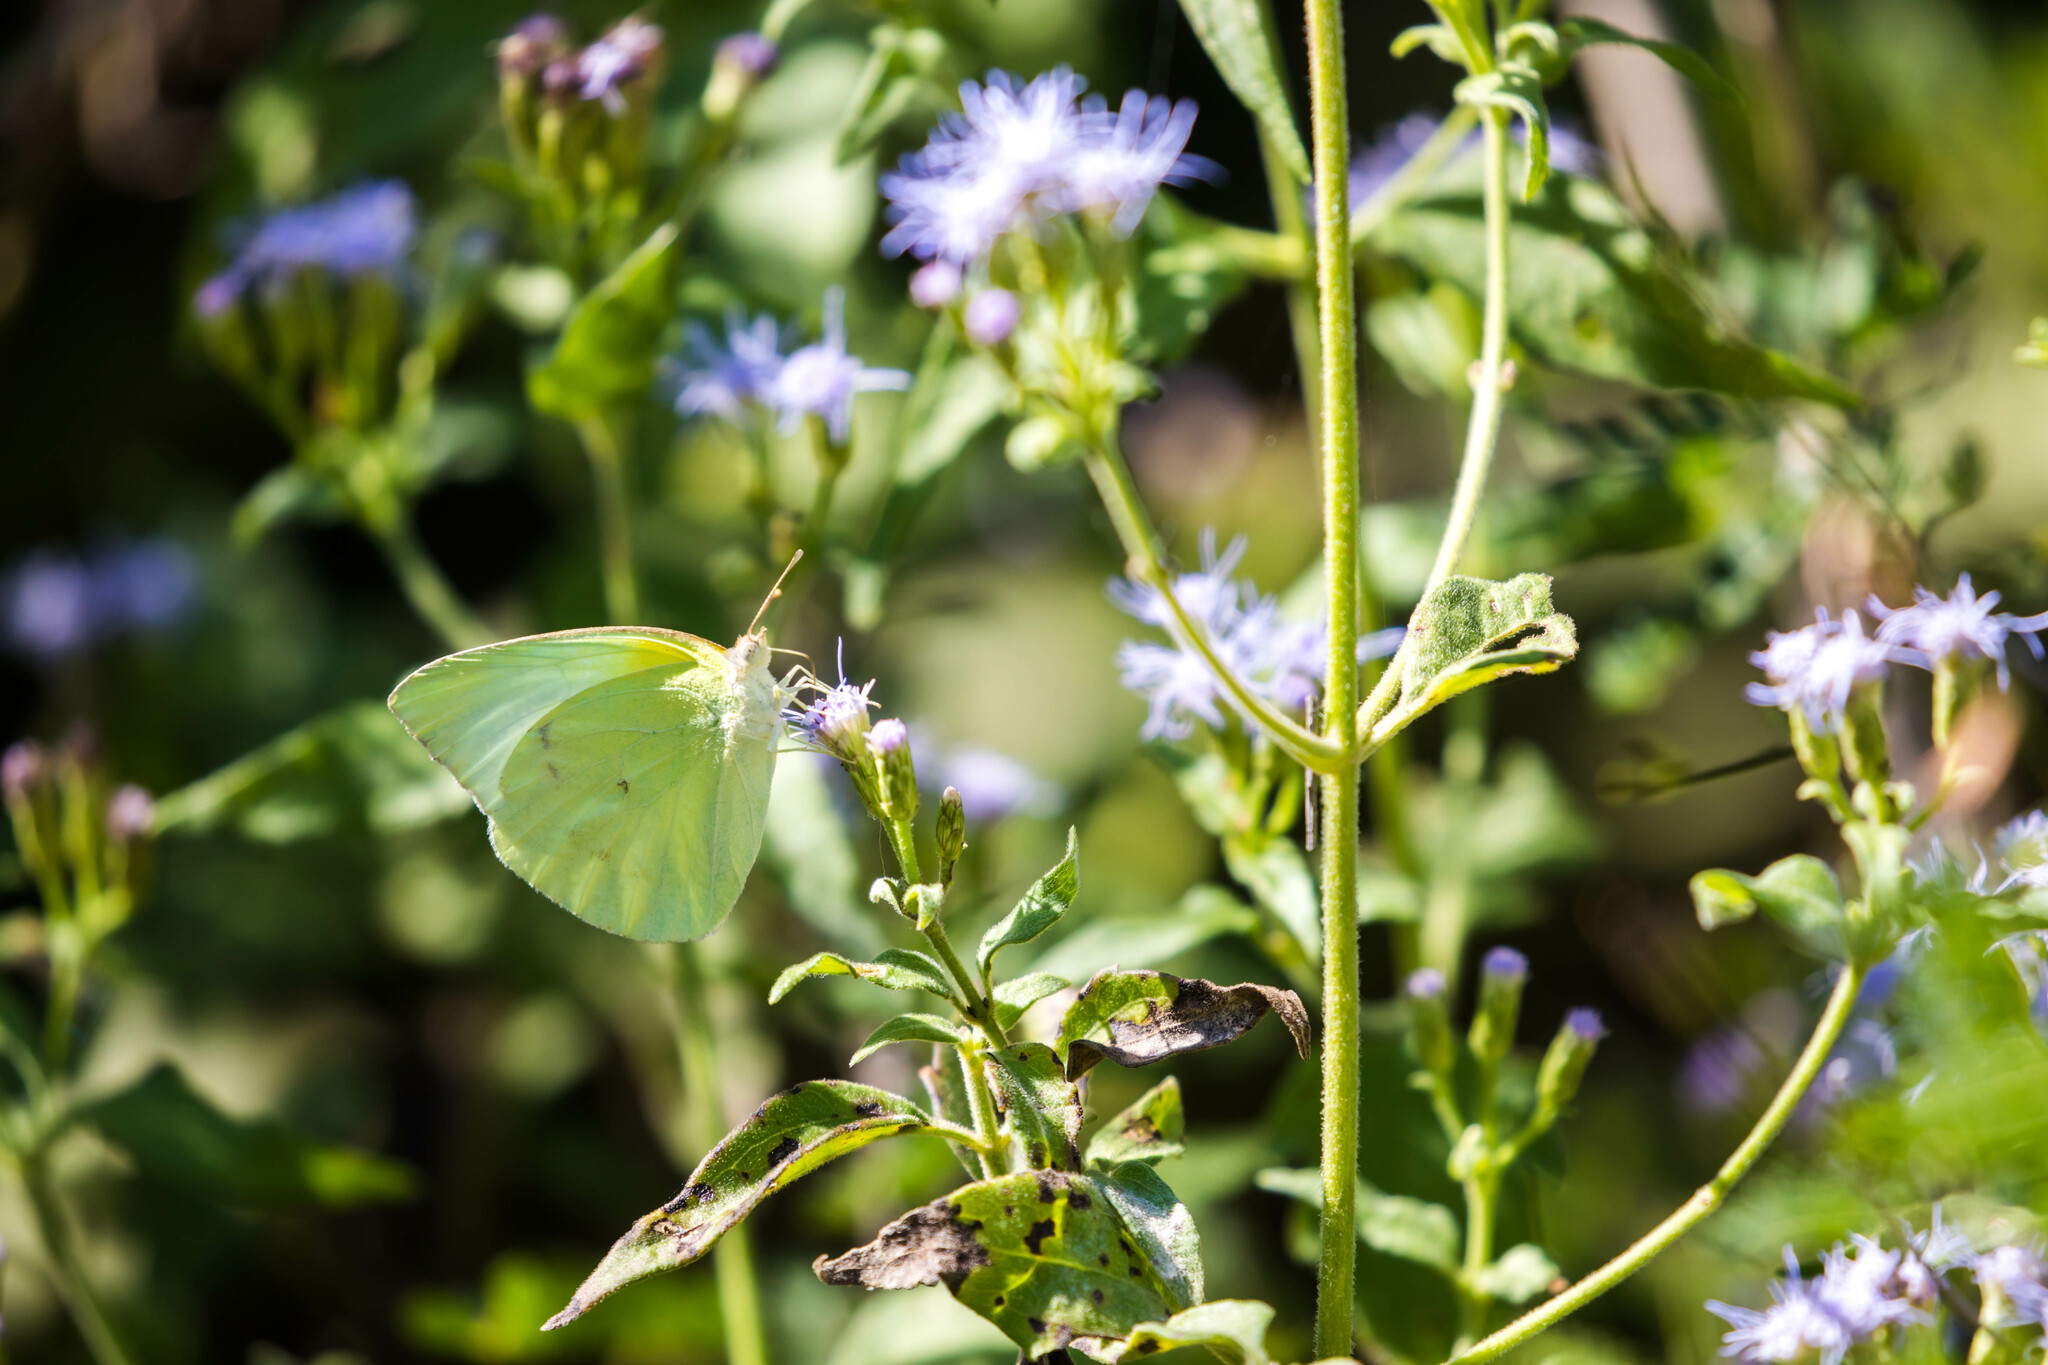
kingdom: Animalia
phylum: Arthropoda
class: Insecta
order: Lepidoptera
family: Pieridae
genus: Kricogonia
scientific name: Kricogonia lyside
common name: Guayacan sulphur,
